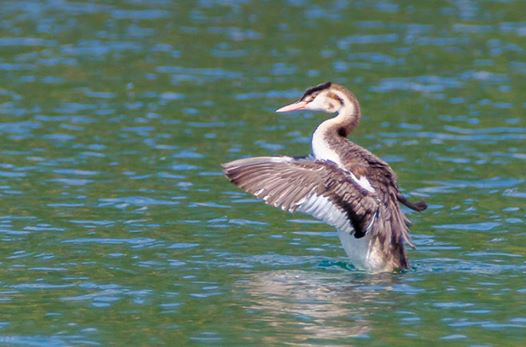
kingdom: Animalia
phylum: Chordata
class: Aves
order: Podicipediformes
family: Podicipedidae
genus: Podiceps
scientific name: Podiceps cristatus
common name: Great crested grebe
